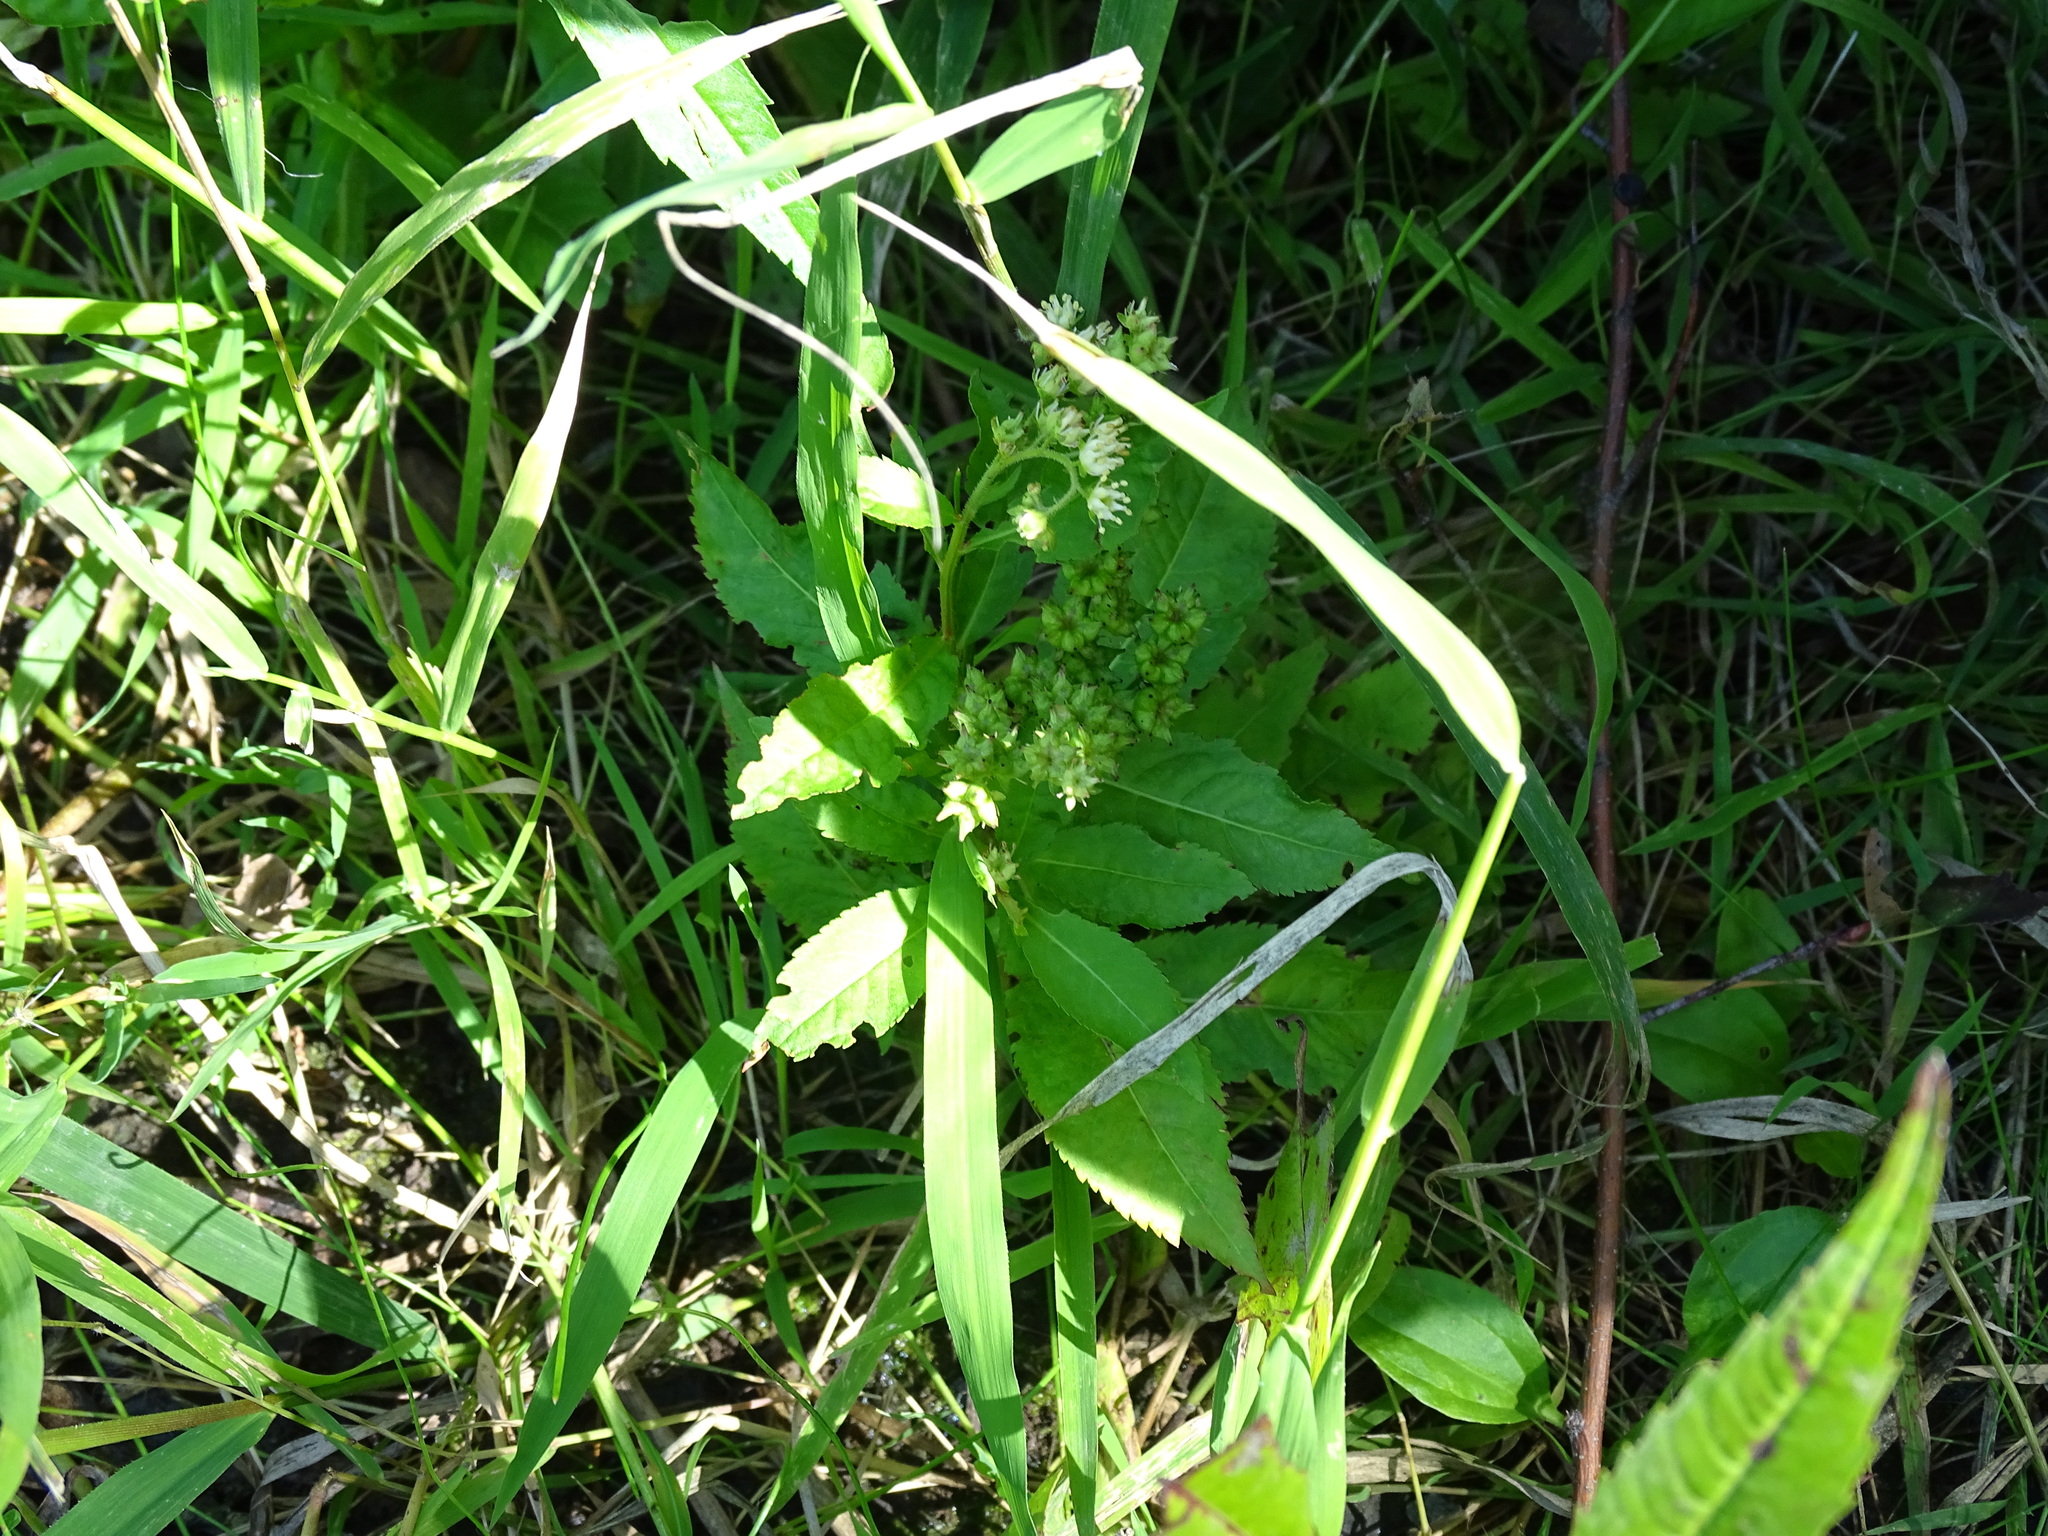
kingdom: Plantae
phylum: Tracheophyta
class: Magnoliopsida
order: Saxifragales
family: Penthoraceae
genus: Penthorum
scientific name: Penthorum sedoides
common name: Ditch stonecrop
